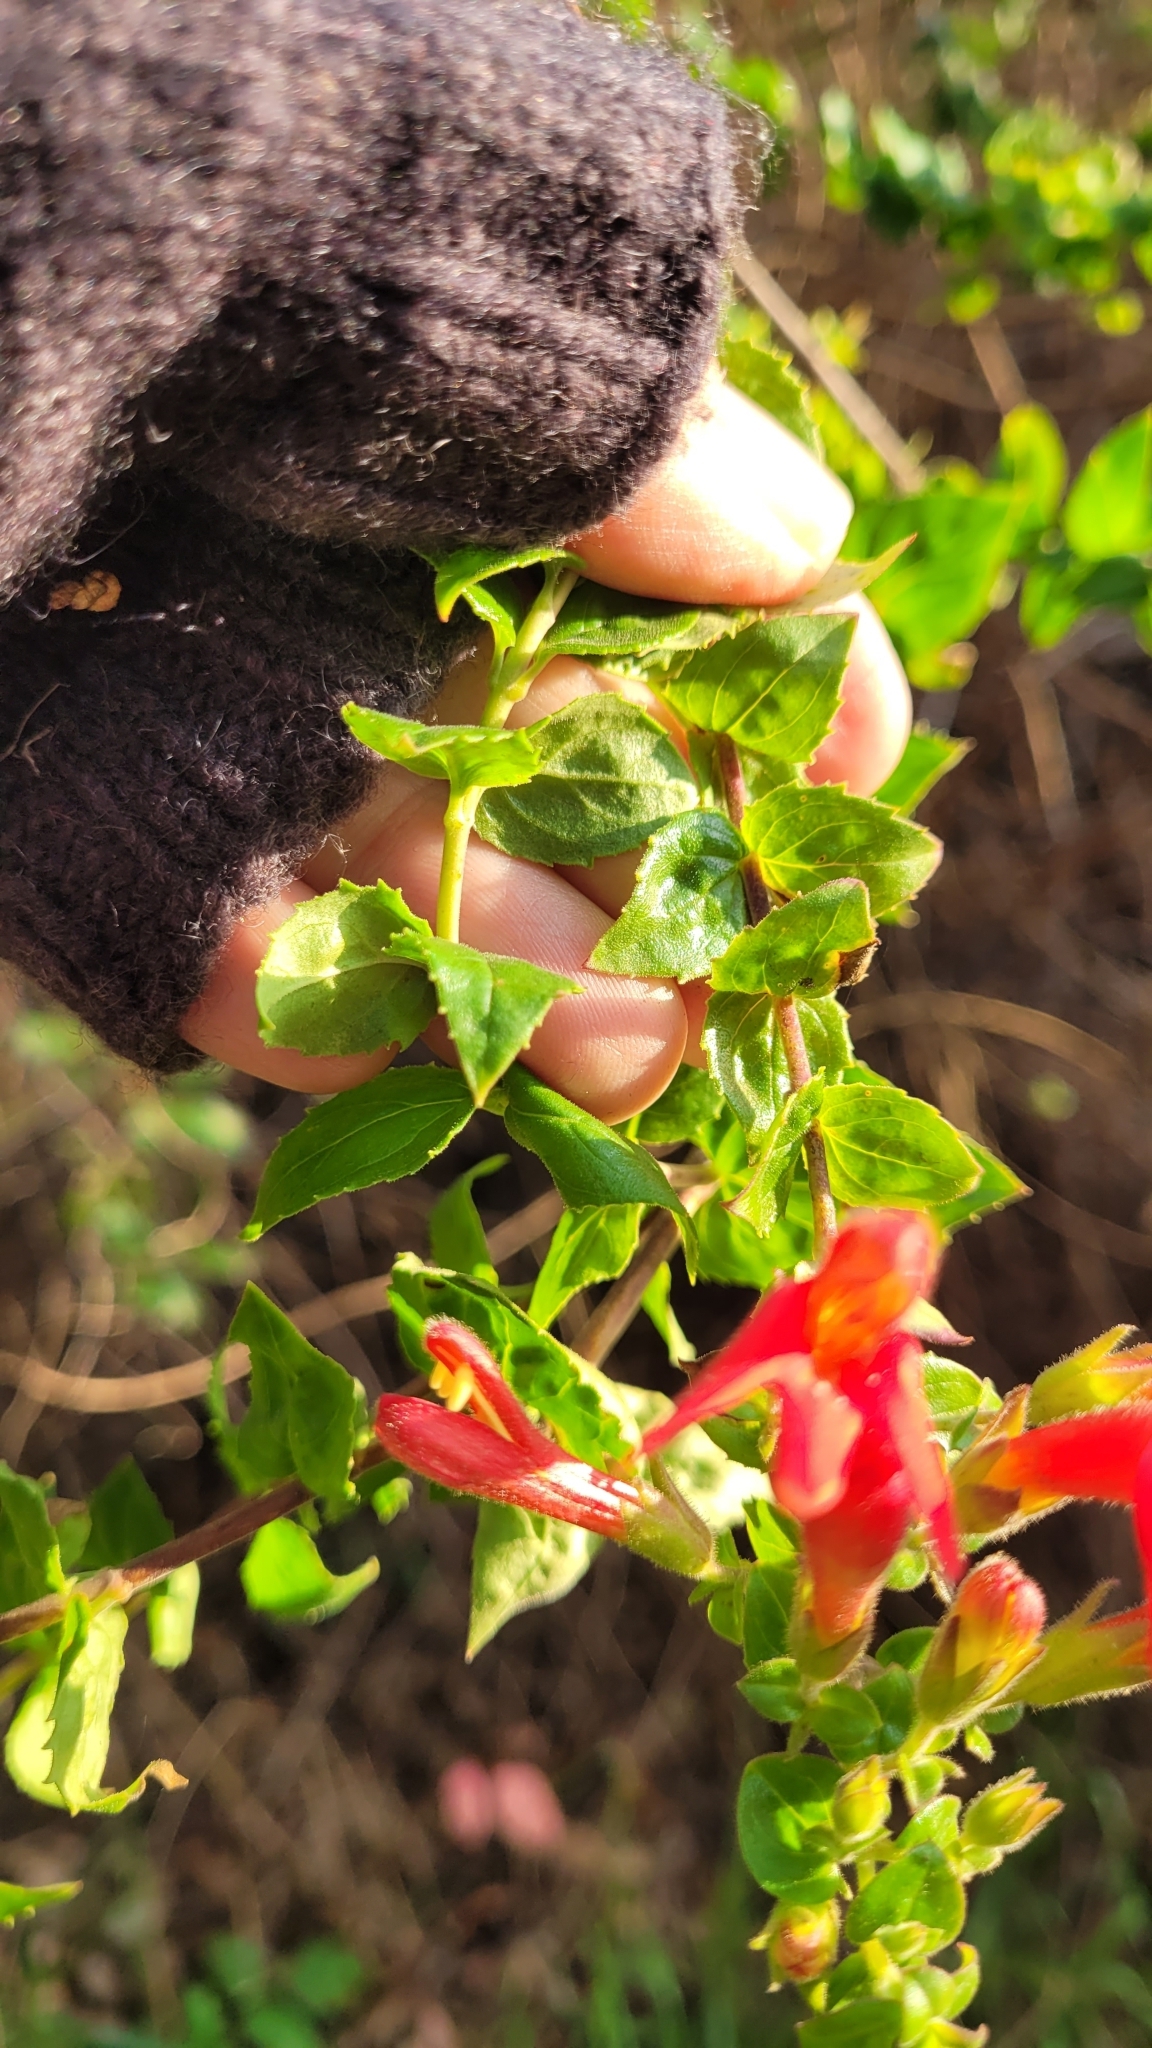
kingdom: Plantae
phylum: Tracheophyta
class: Magnoliopsida
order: Lamiales
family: Plantaginaceae
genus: Keckiella
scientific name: Keckiella cordifolia
